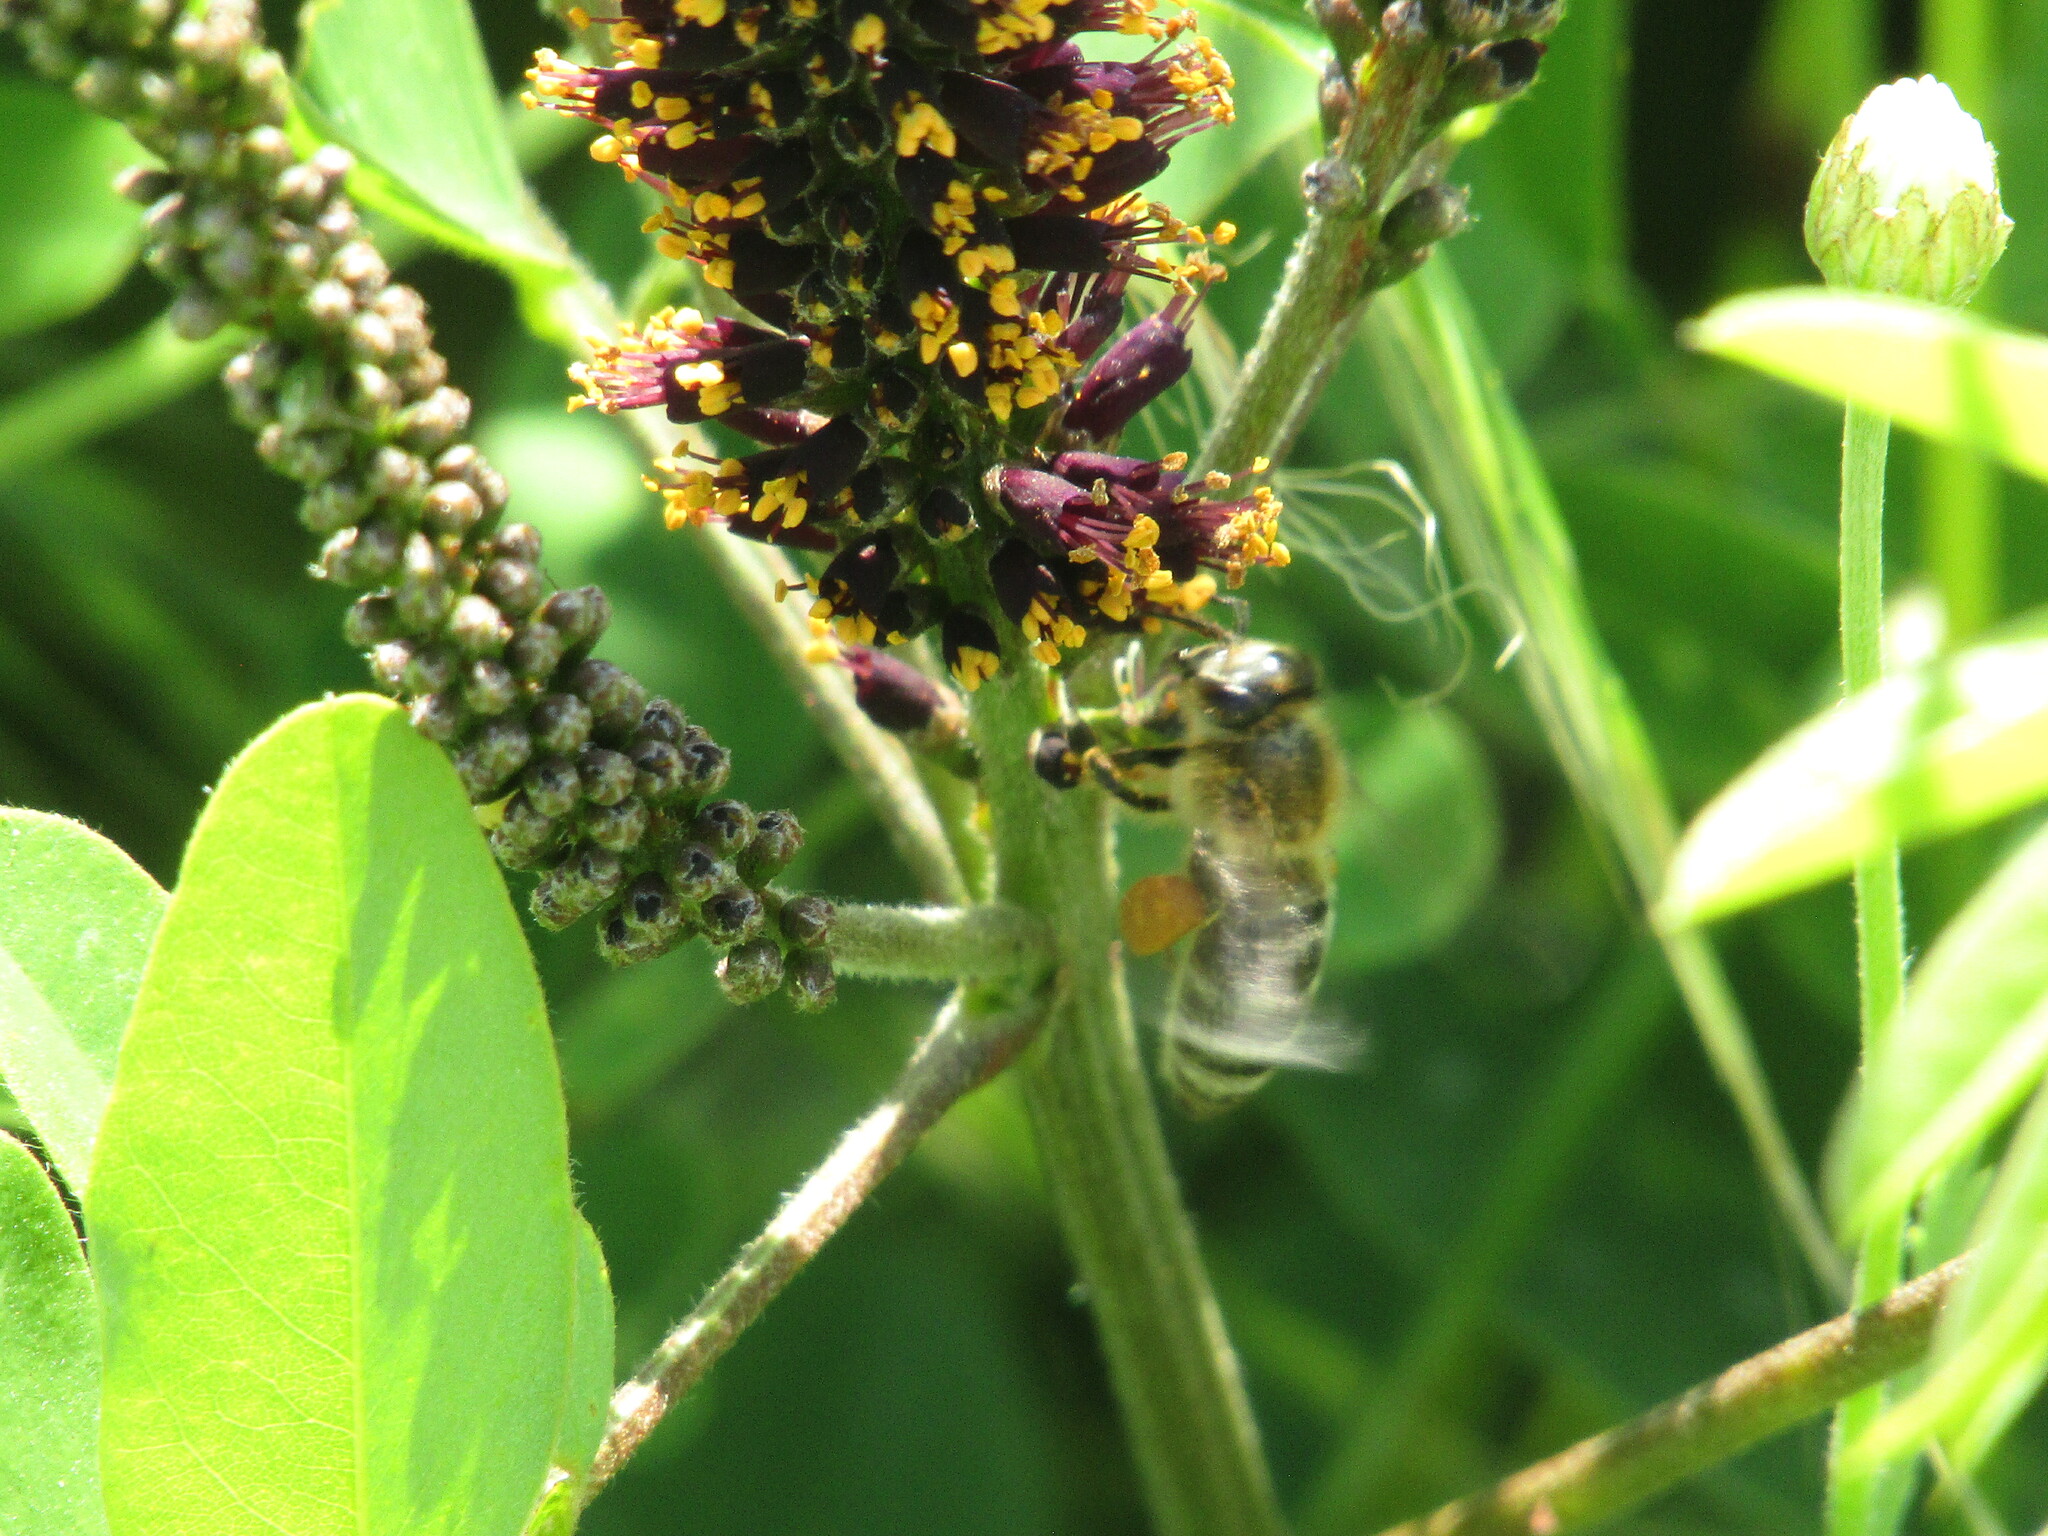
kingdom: Animalia
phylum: Arthropoda
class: Insecta
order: Hymenoptera
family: Apidae
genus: Apis
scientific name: Apis mellifera
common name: Honey bee
